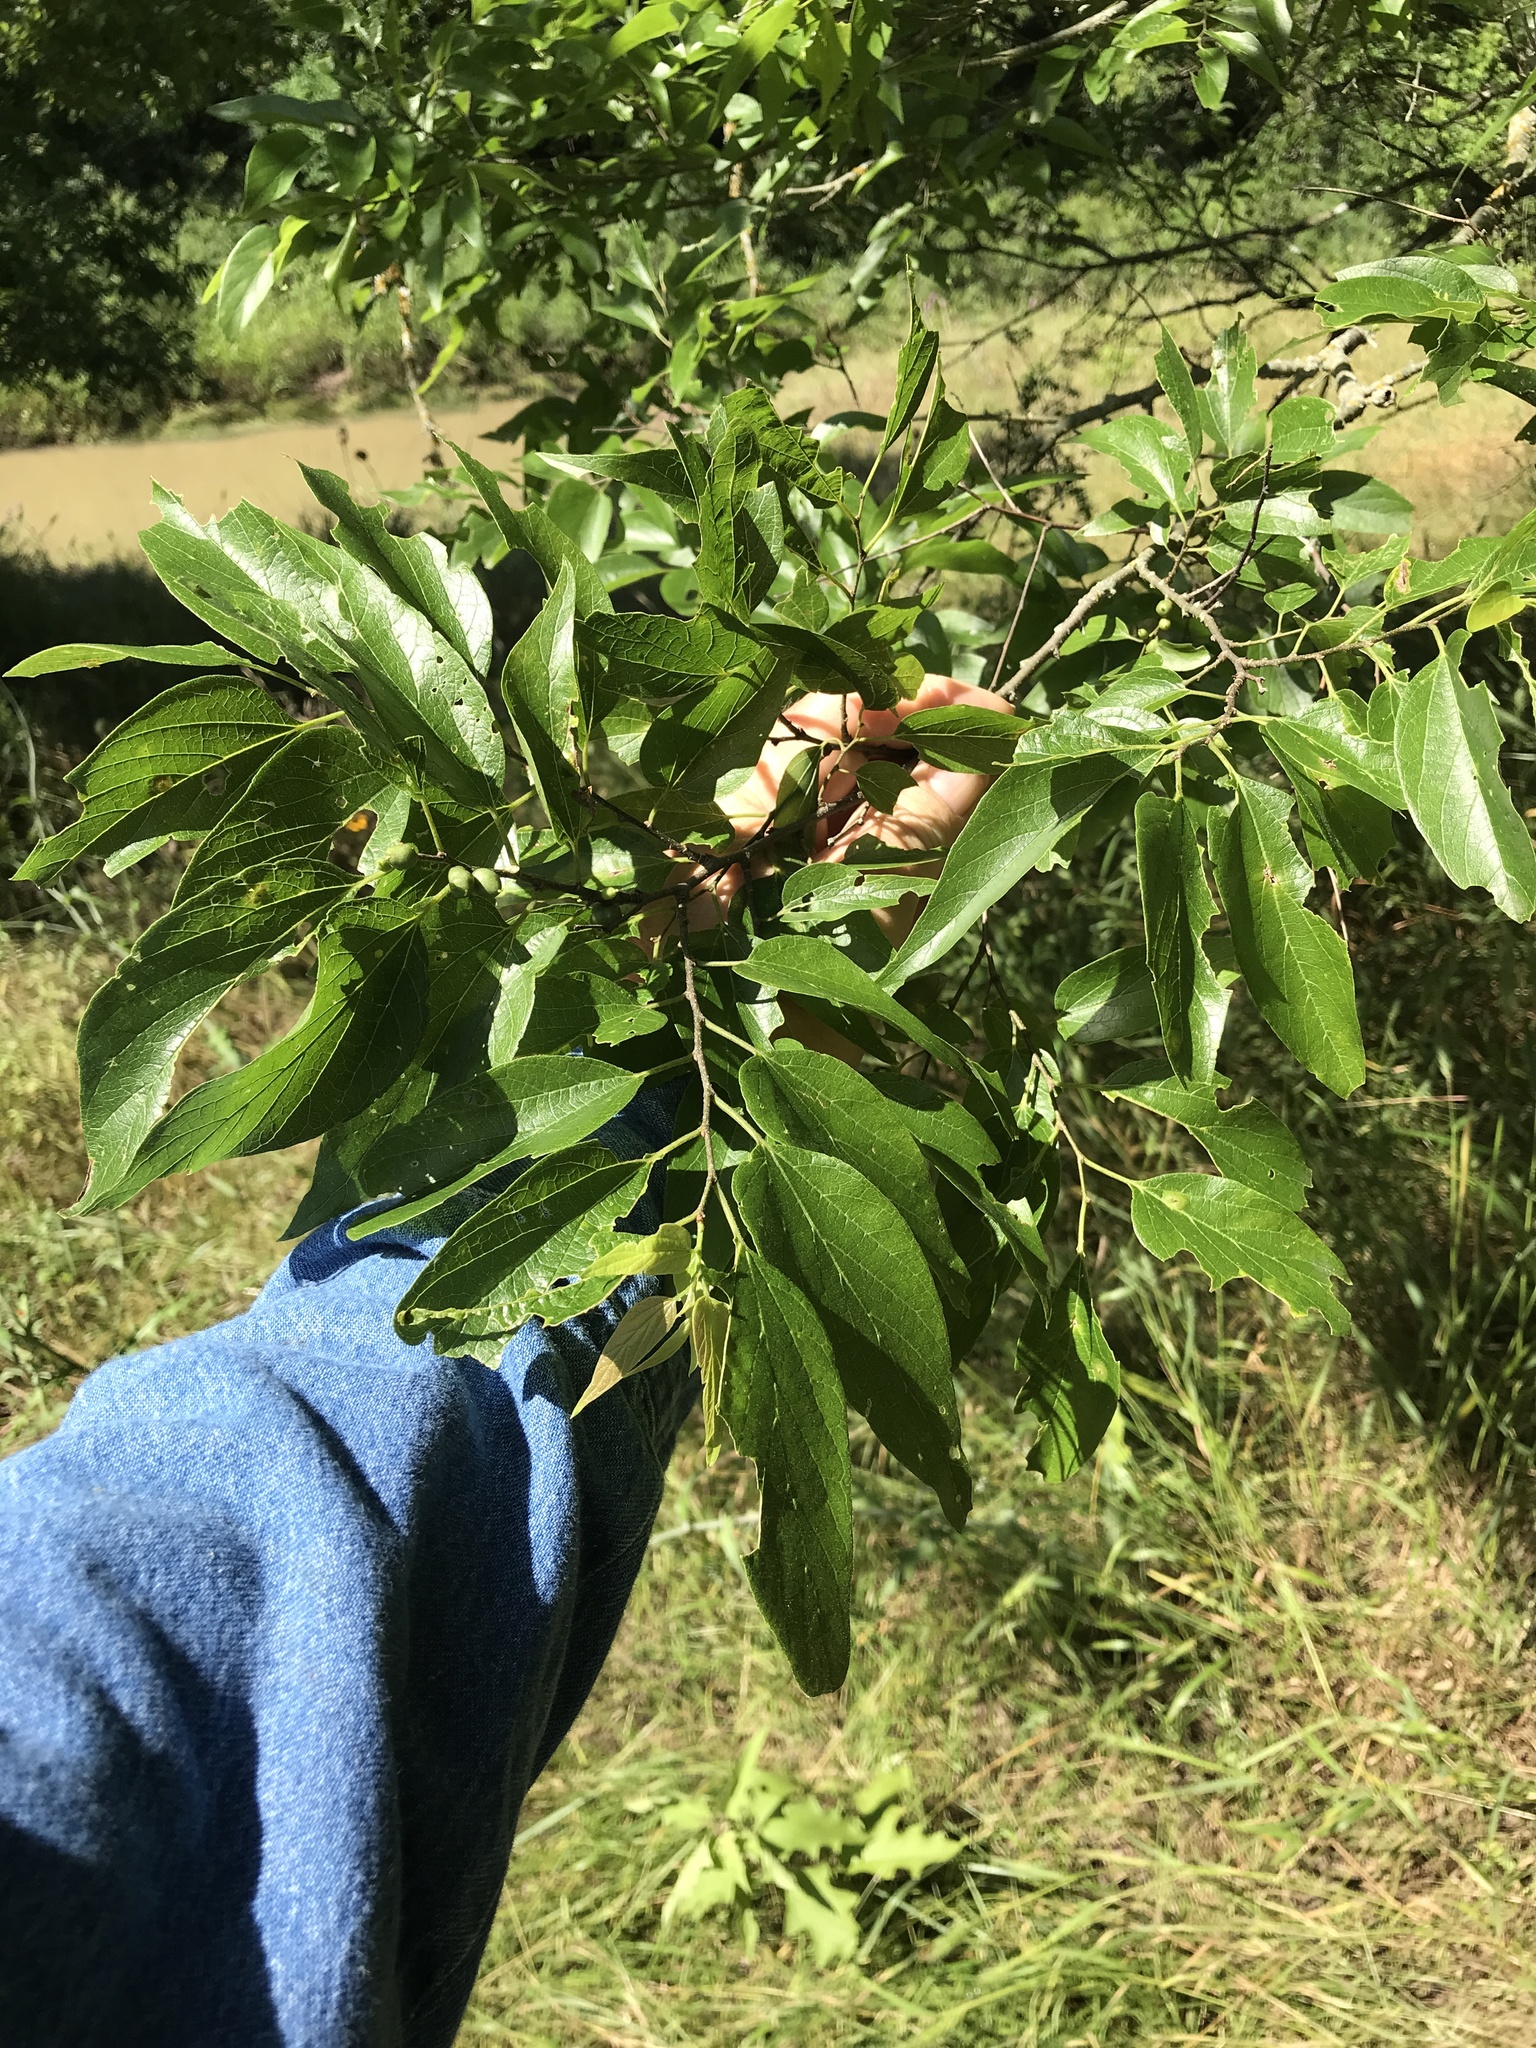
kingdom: Plantae
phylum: Tracheophyta
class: Magnoliopsida
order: Rosales
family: Cannabaceae
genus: Celtis
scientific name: Celtis laevigata
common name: Sugarberry
